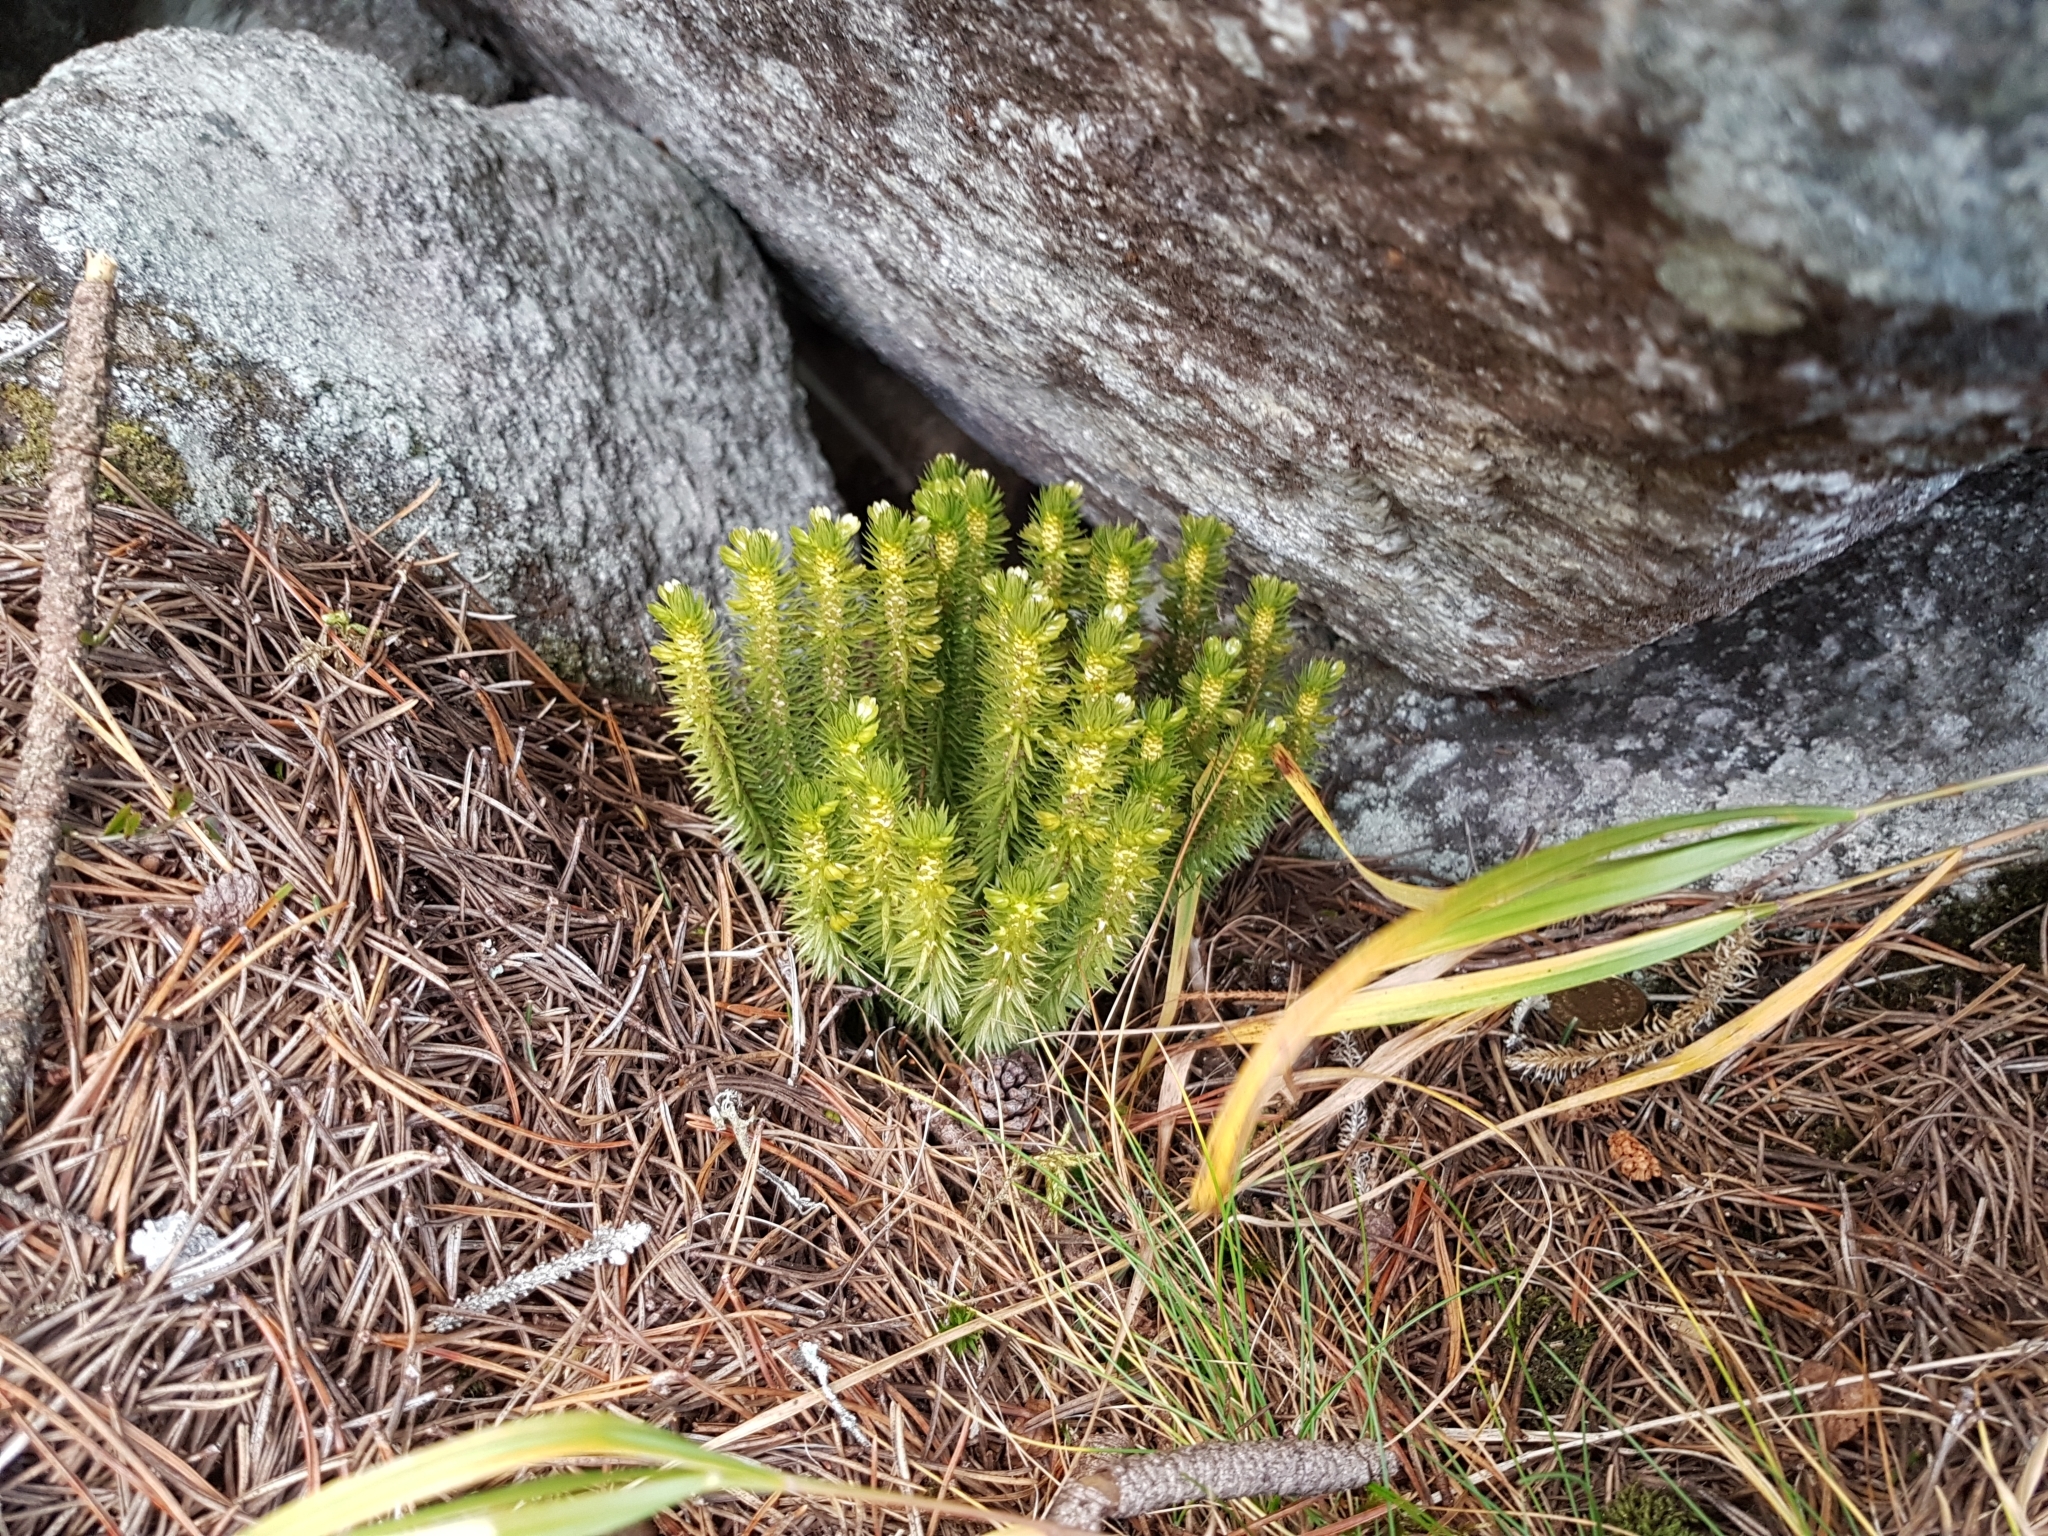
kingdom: Plantae
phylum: Tracheophyta
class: Lycopodiopsida
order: Lycopodiales
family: Lycopodiaceae
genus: Huperzia
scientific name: Huperzia selago
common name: Northern firmoss
